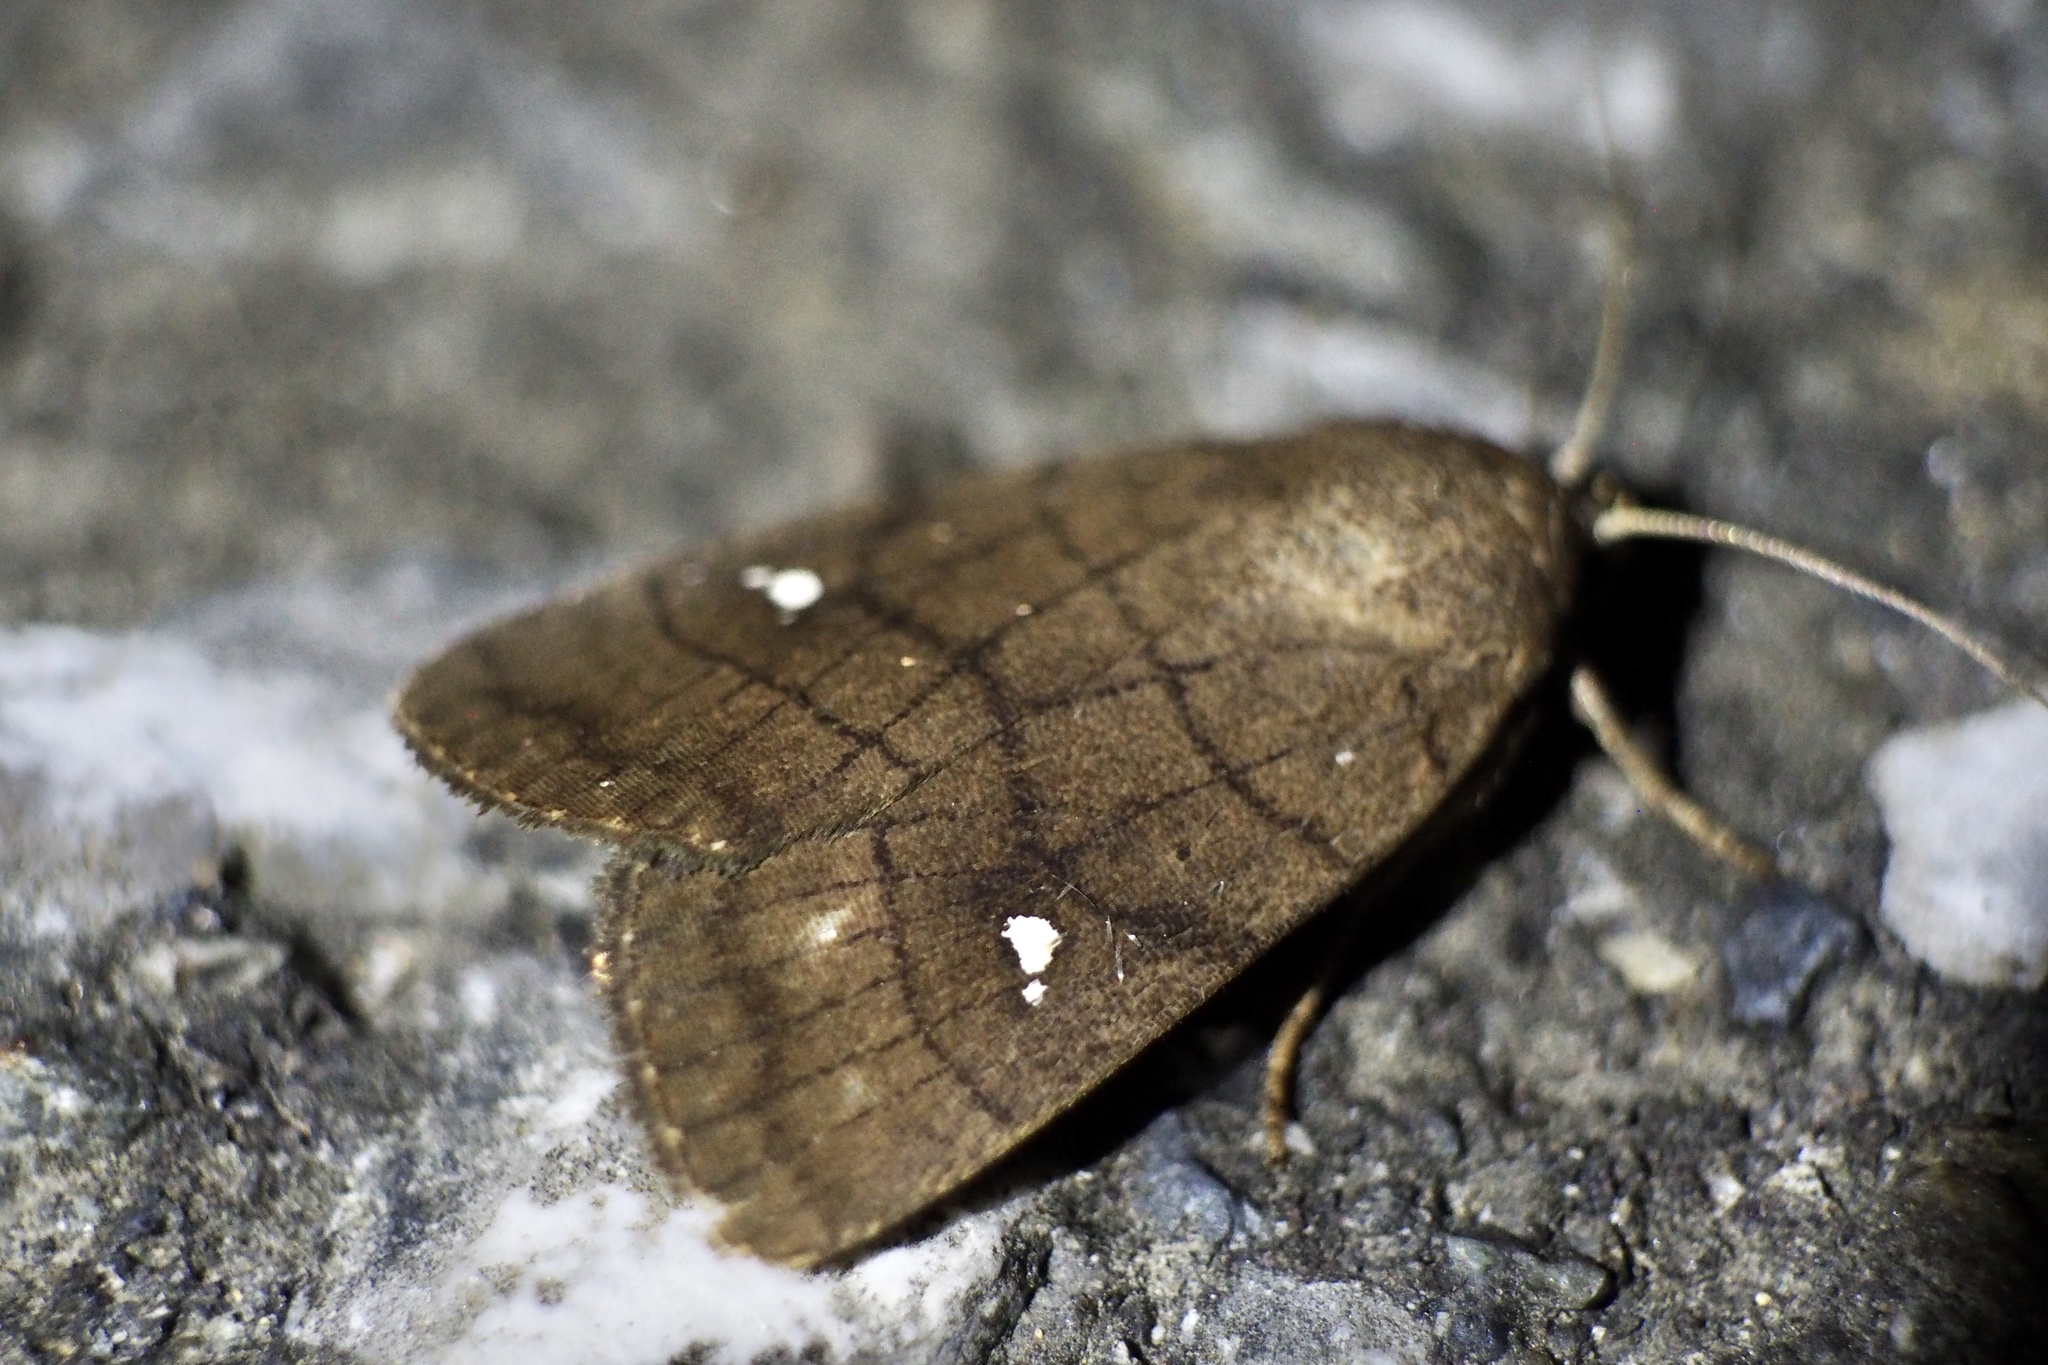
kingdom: Animalia
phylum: Arthropoda
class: Insecta
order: Lepidoptera
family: Noctuidae
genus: Proxenus
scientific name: Proxenus
